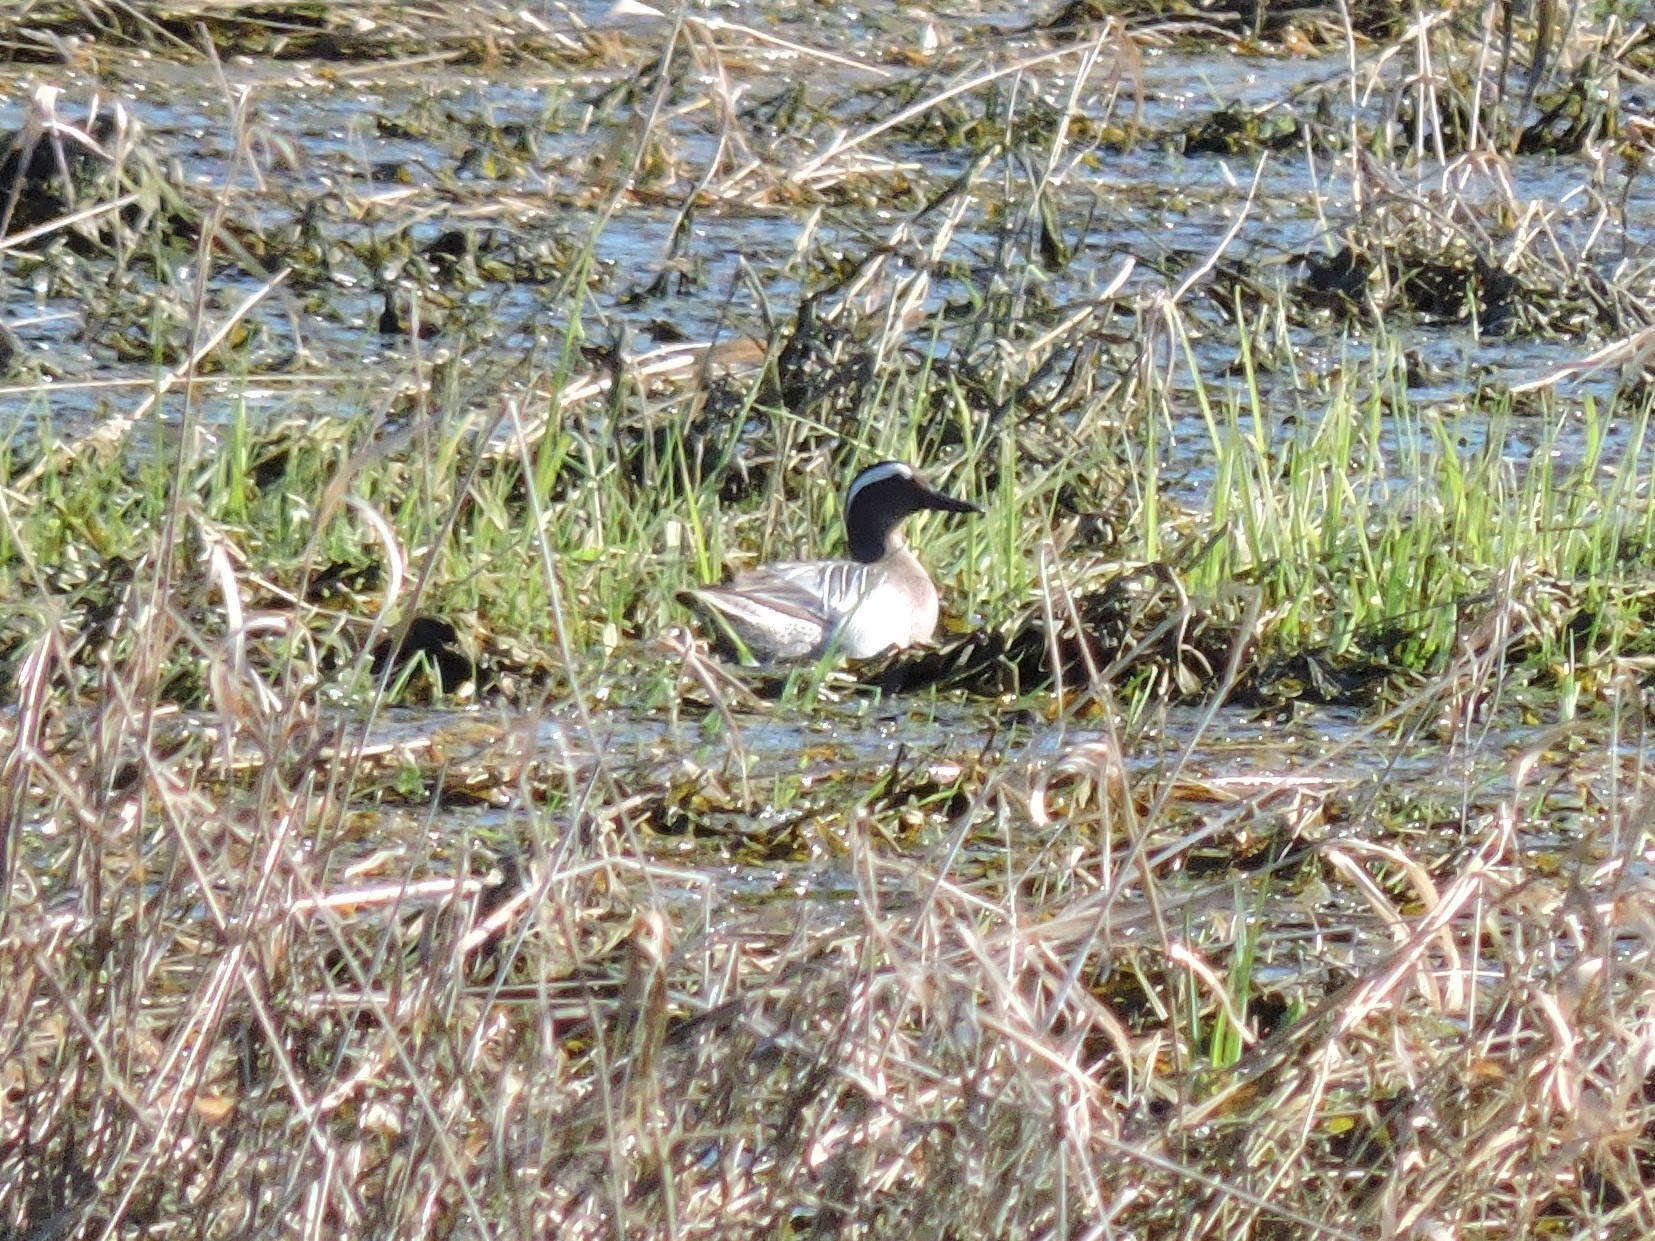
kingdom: Animalia
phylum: Chordata
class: Aves
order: Anseriformes
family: Anatidae
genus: Spatula
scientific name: Spatula querquedula
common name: Garganey
